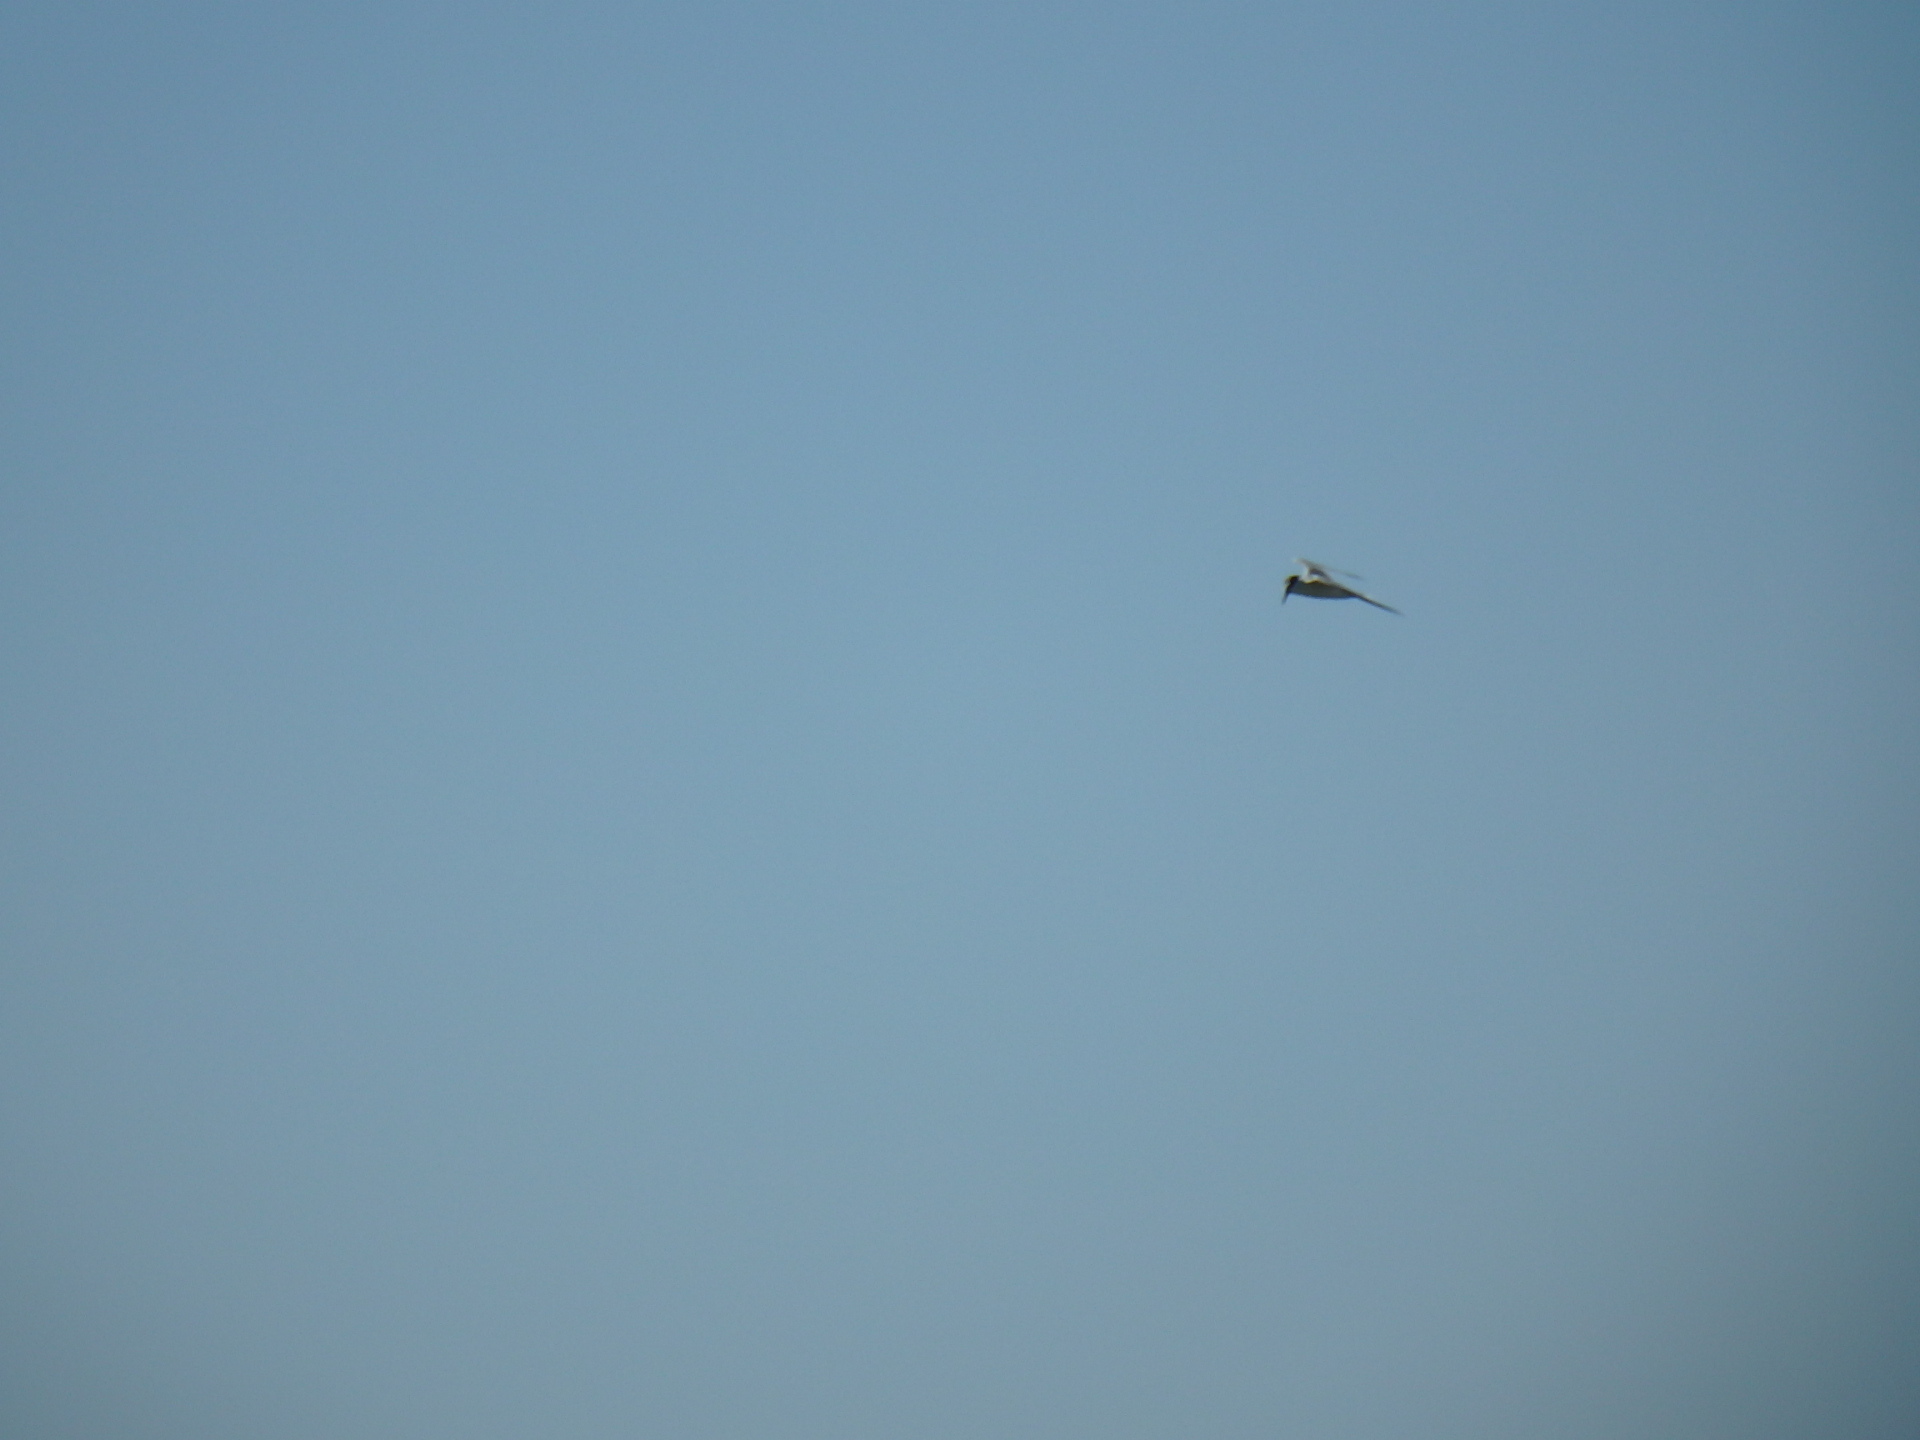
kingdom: Animalia
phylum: Chordata
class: Aves
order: Charadriiformes
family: Laridae
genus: Sternula
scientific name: Sternula albifrons
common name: Little tern
